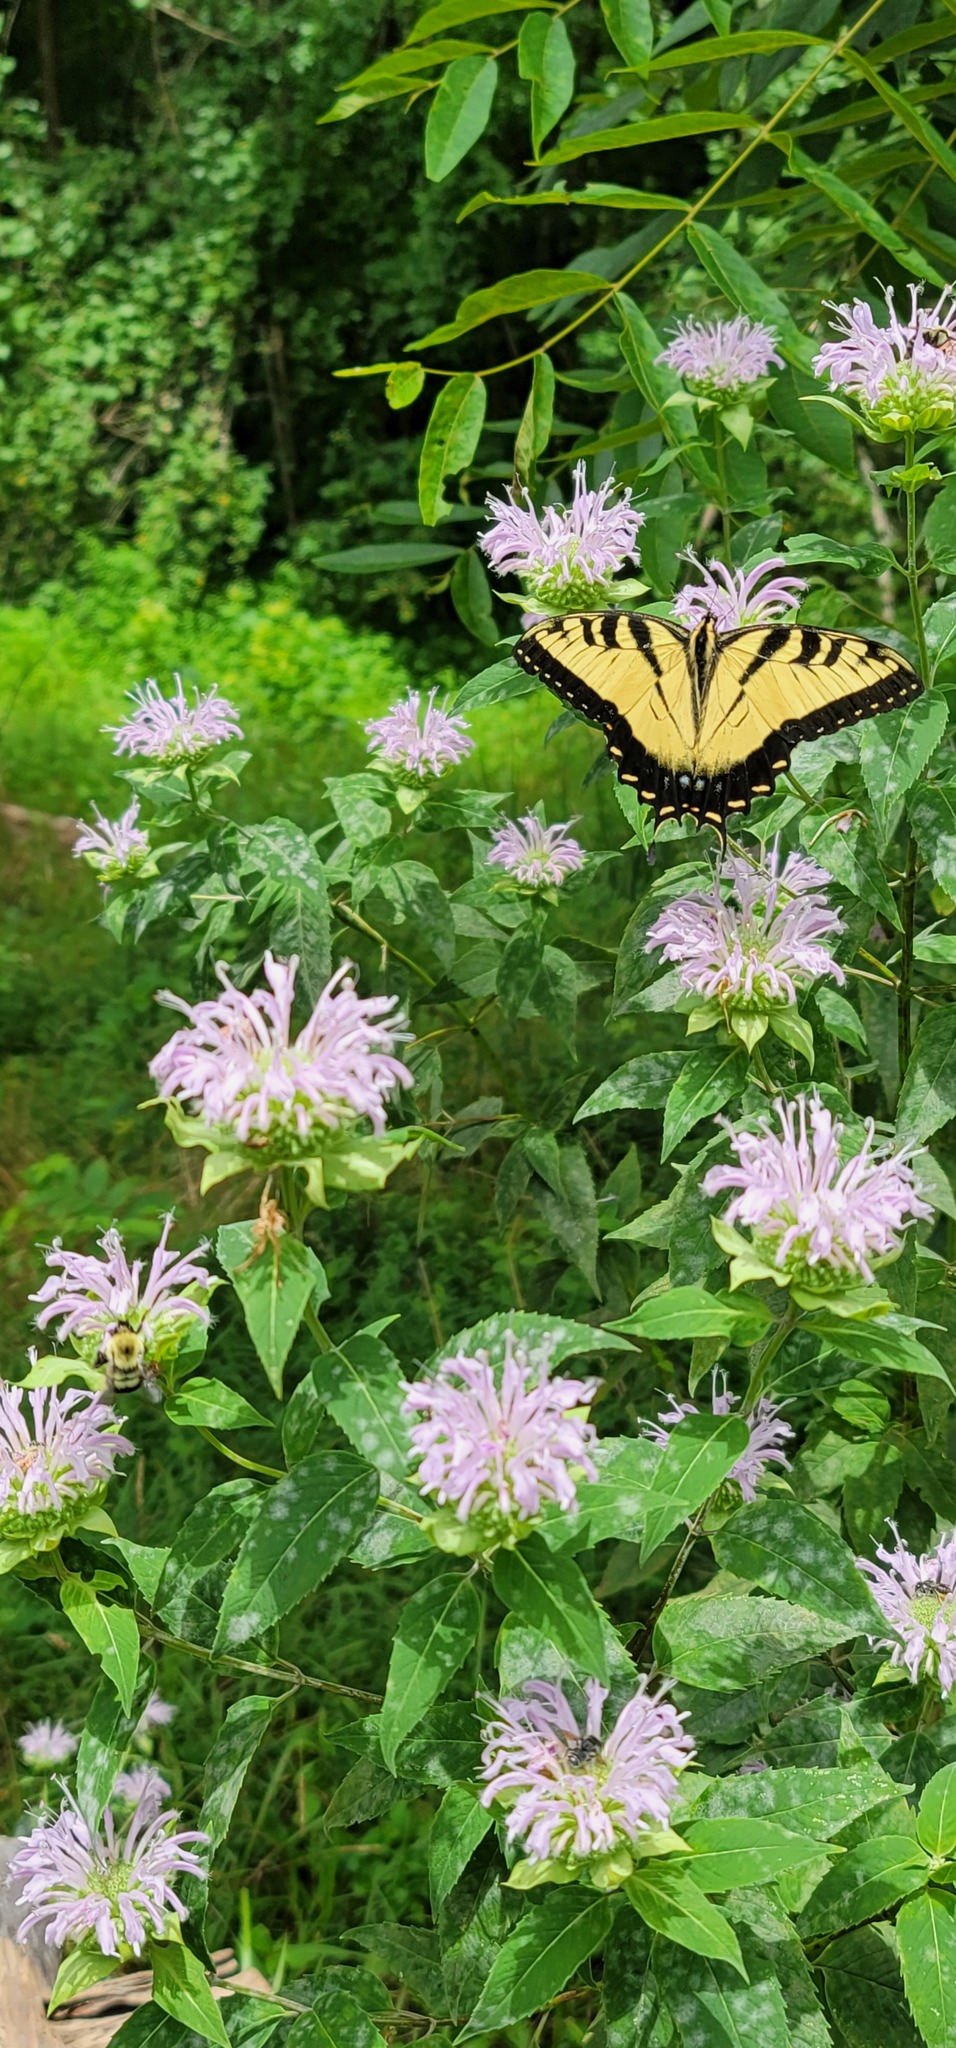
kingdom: Animalia
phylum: Arthropoda
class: Insecta
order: Lepidoptera
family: Papilionidae
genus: Papilio
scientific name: Papilio glaucus
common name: Tiger swallowtail
